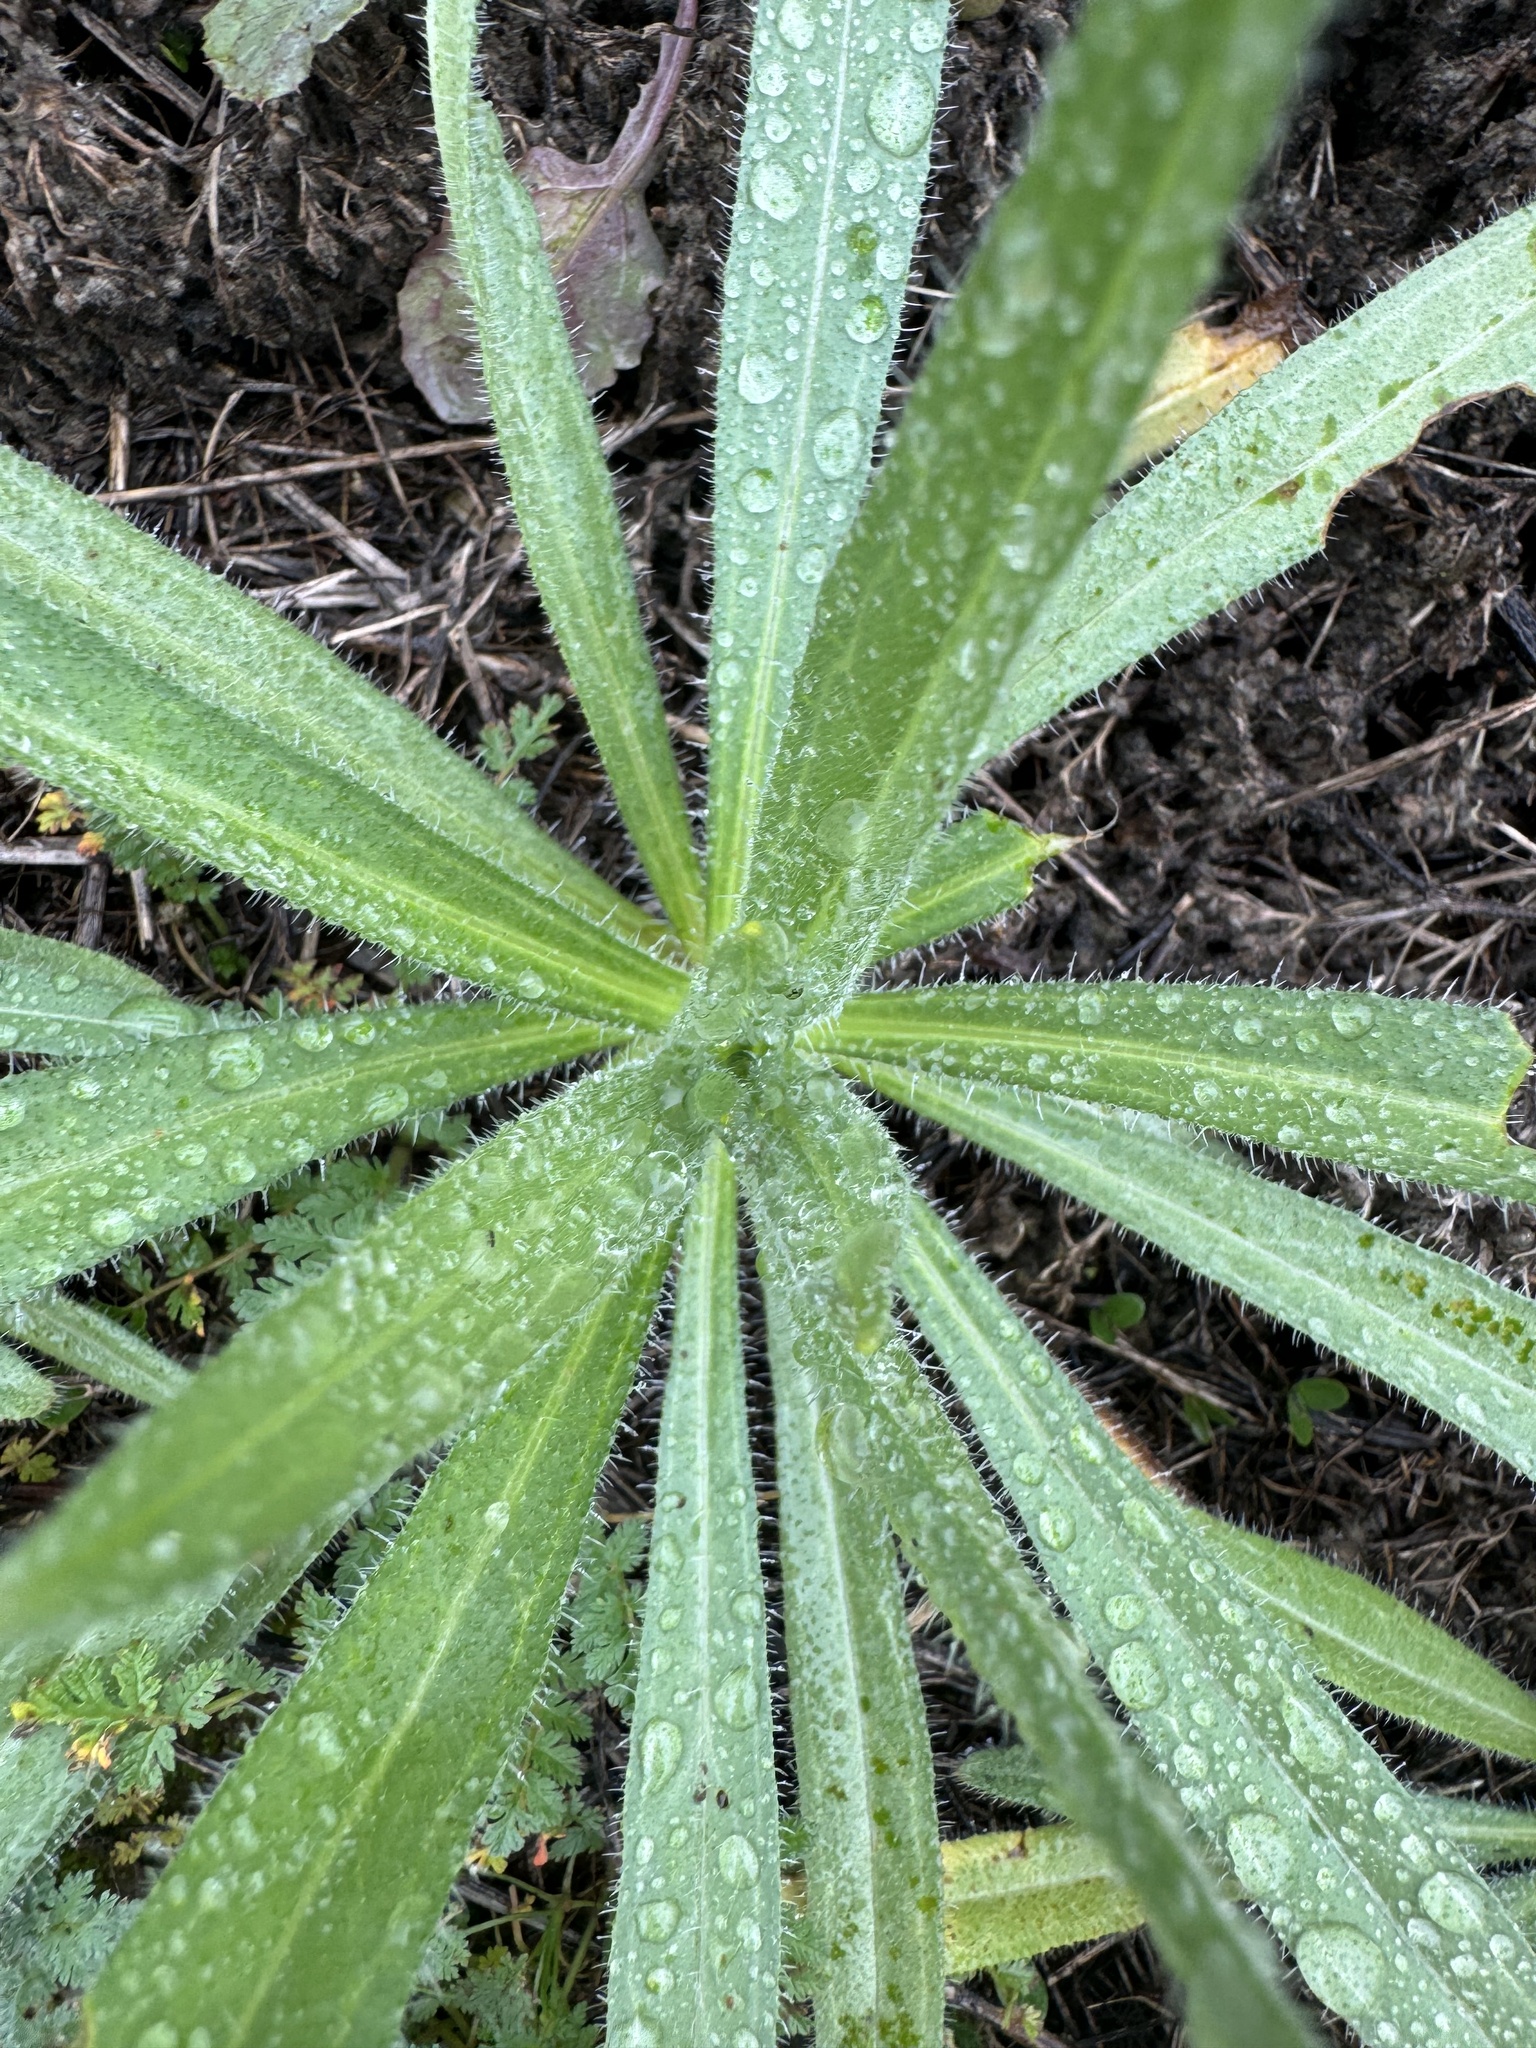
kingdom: Plantae
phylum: Tracheophyta
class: Magnoliopsida
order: Boraginales
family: Boraginaceae
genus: Amsinckia
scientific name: Amsinckia menziesii
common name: Menzies' fiddleneck
